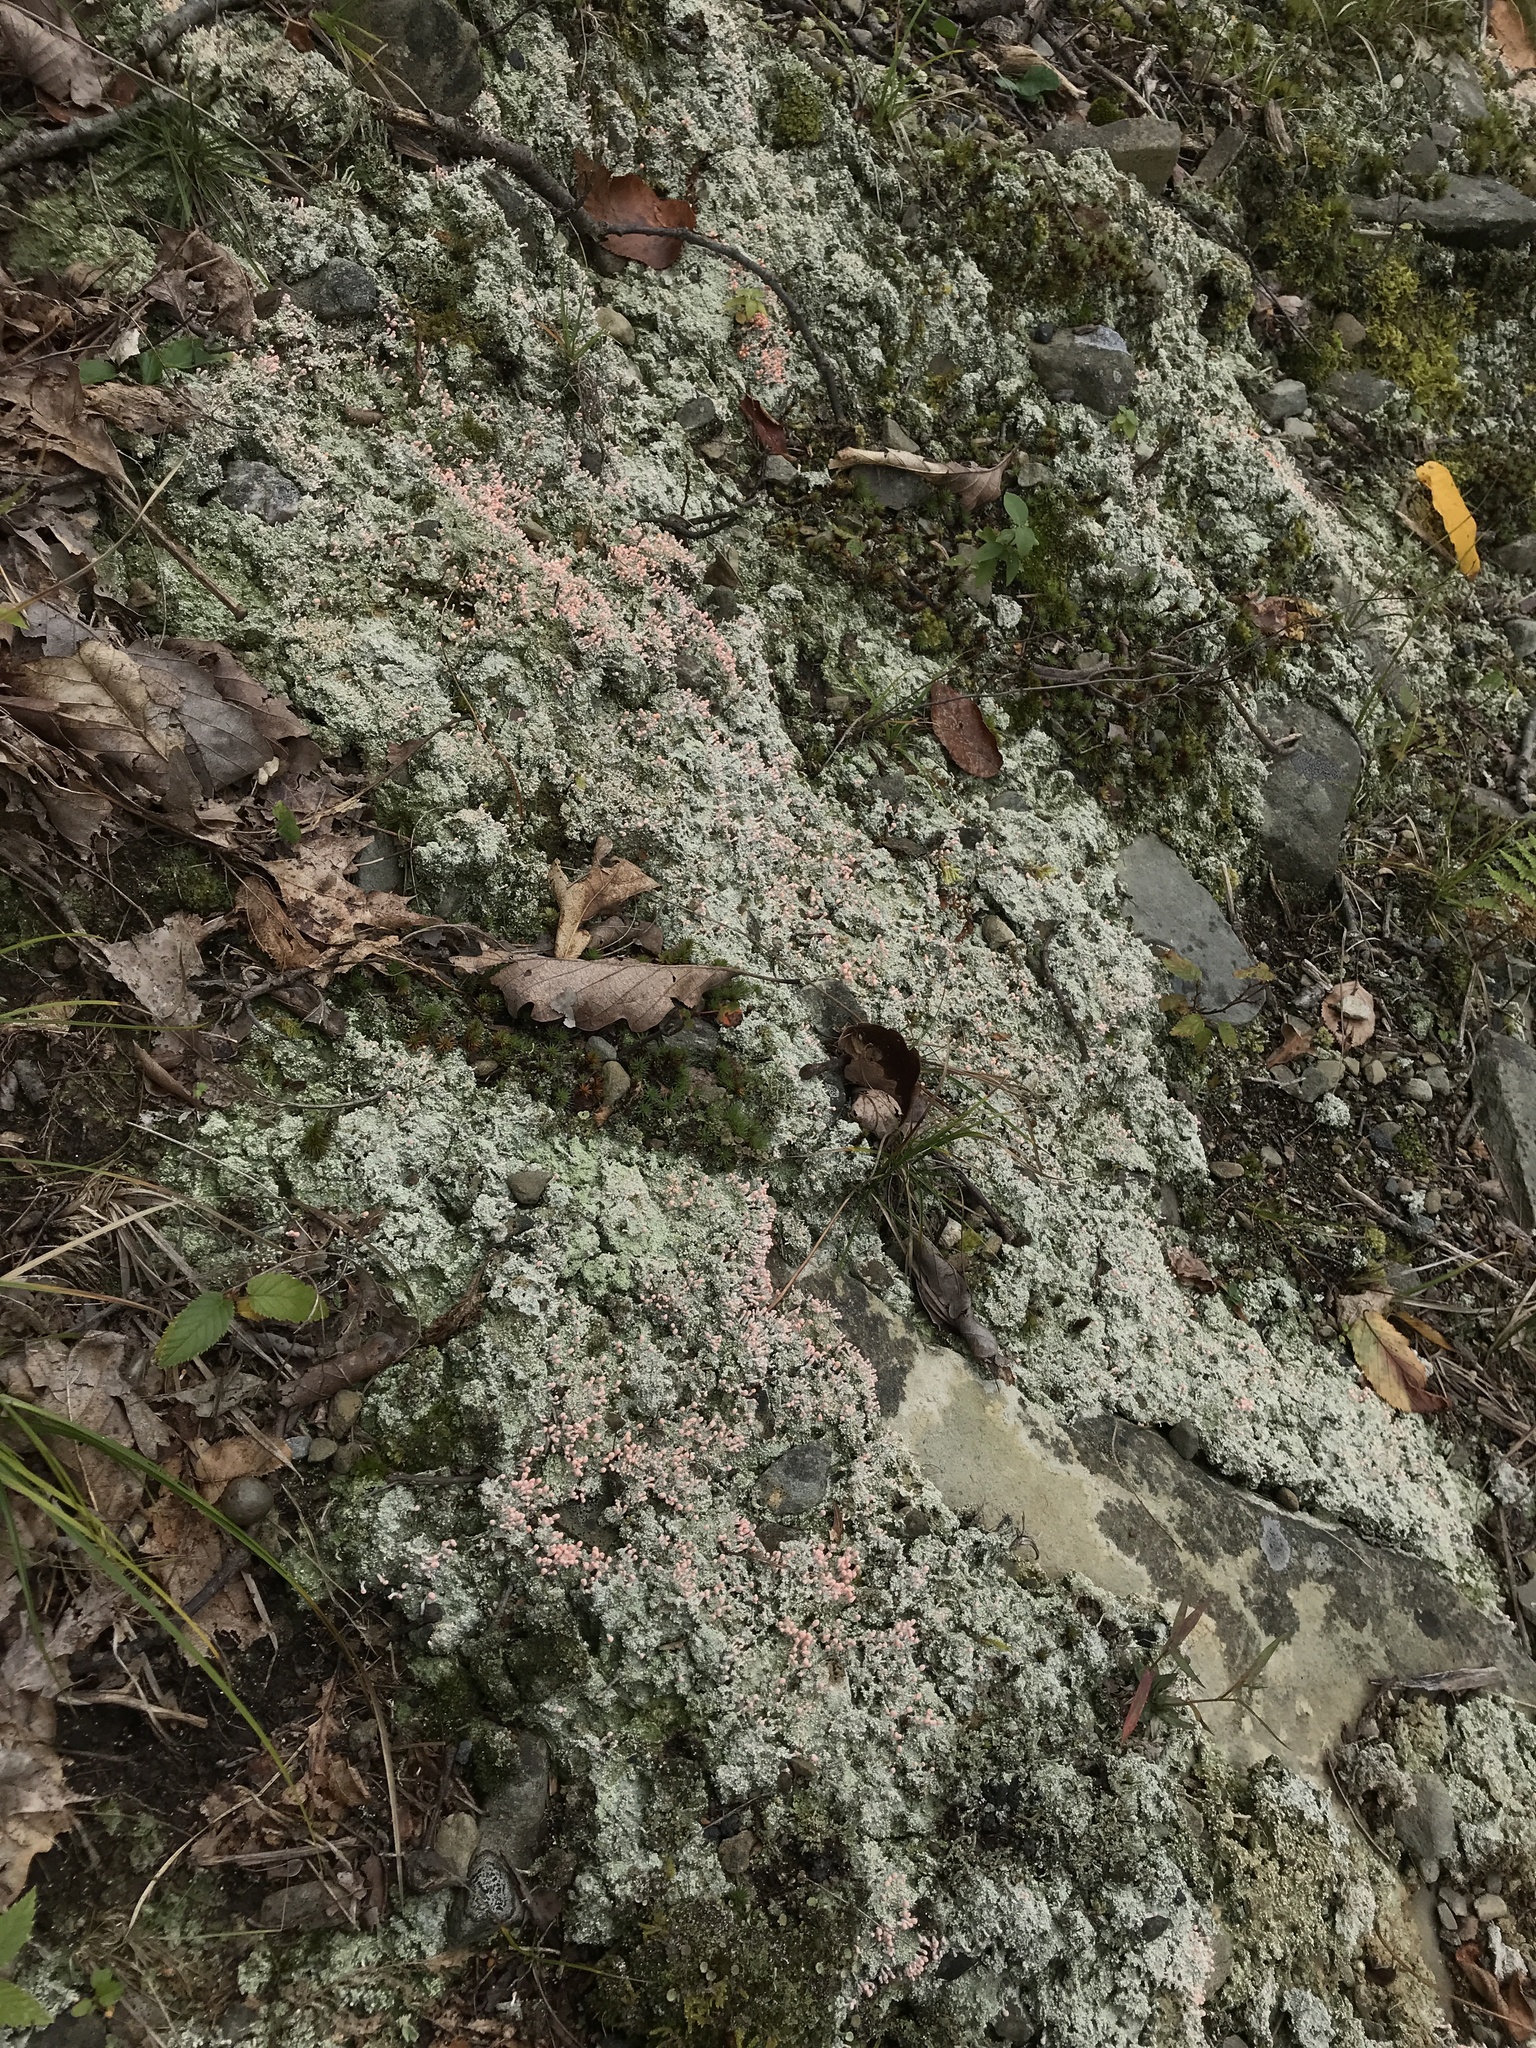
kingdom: Fungi
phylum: Ascomycota
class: Lecanoromycetes
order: Pertusariales
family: Icmadophilaceae
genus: Dibaeis
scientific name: Dibaeis baeomyces
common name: Pink earth lichen
